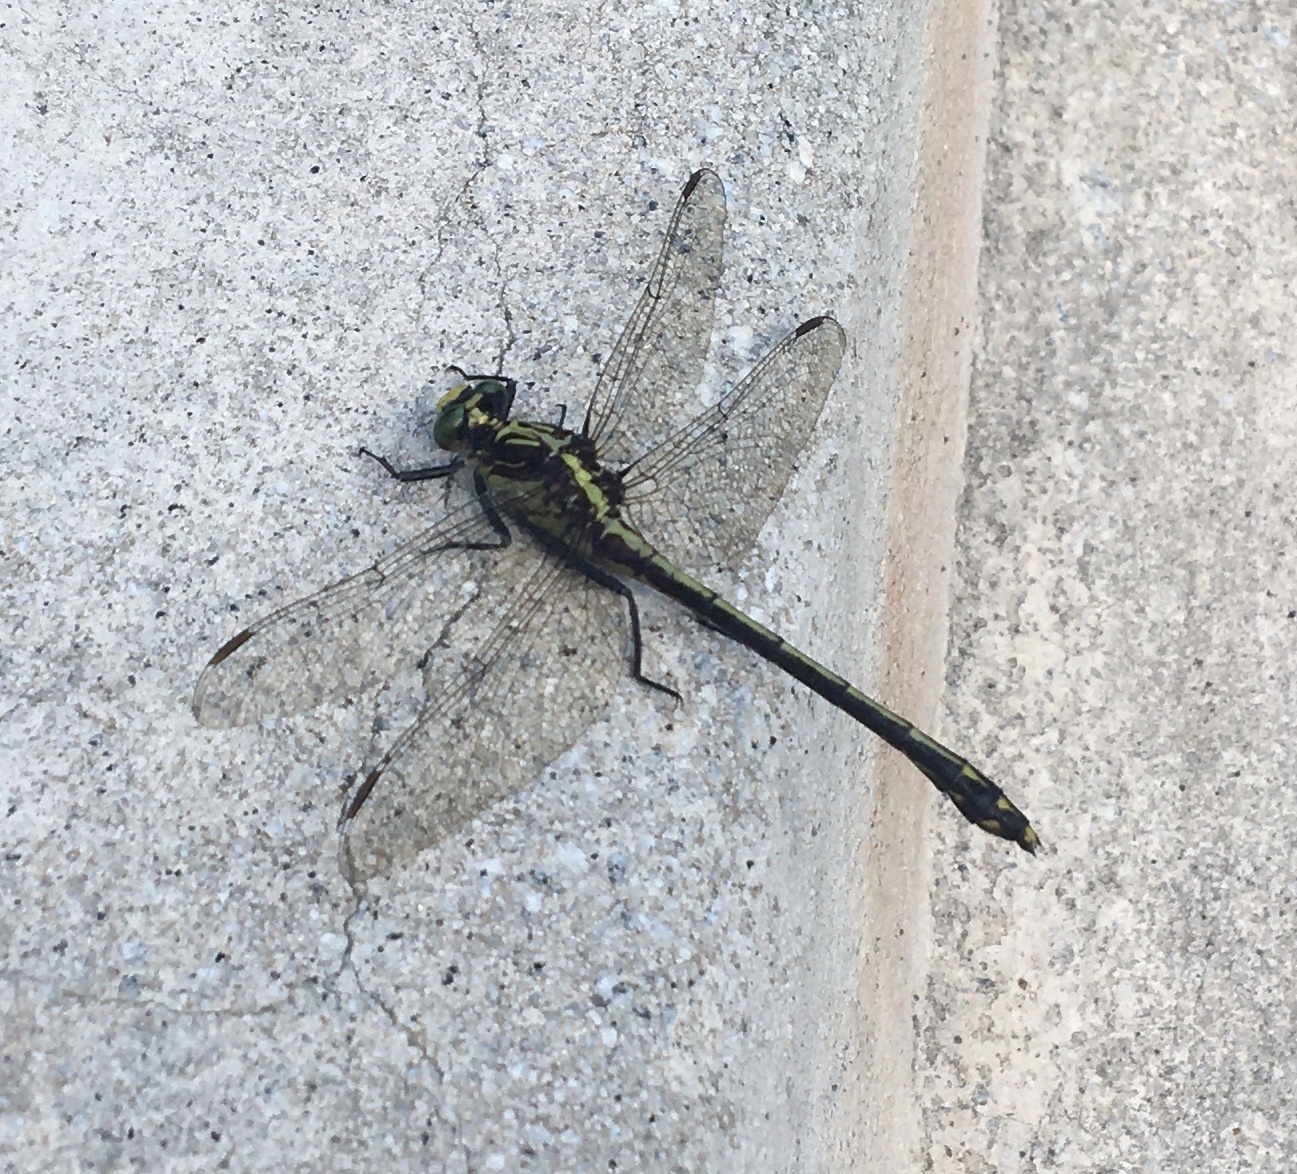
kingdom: Animalia
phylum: Arthropoda
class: Insecta
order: Odonata
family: Gomphidae
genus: Dromogomphus
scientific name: Dromogomphus spinosus
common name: Black-shouldered spinyleg
